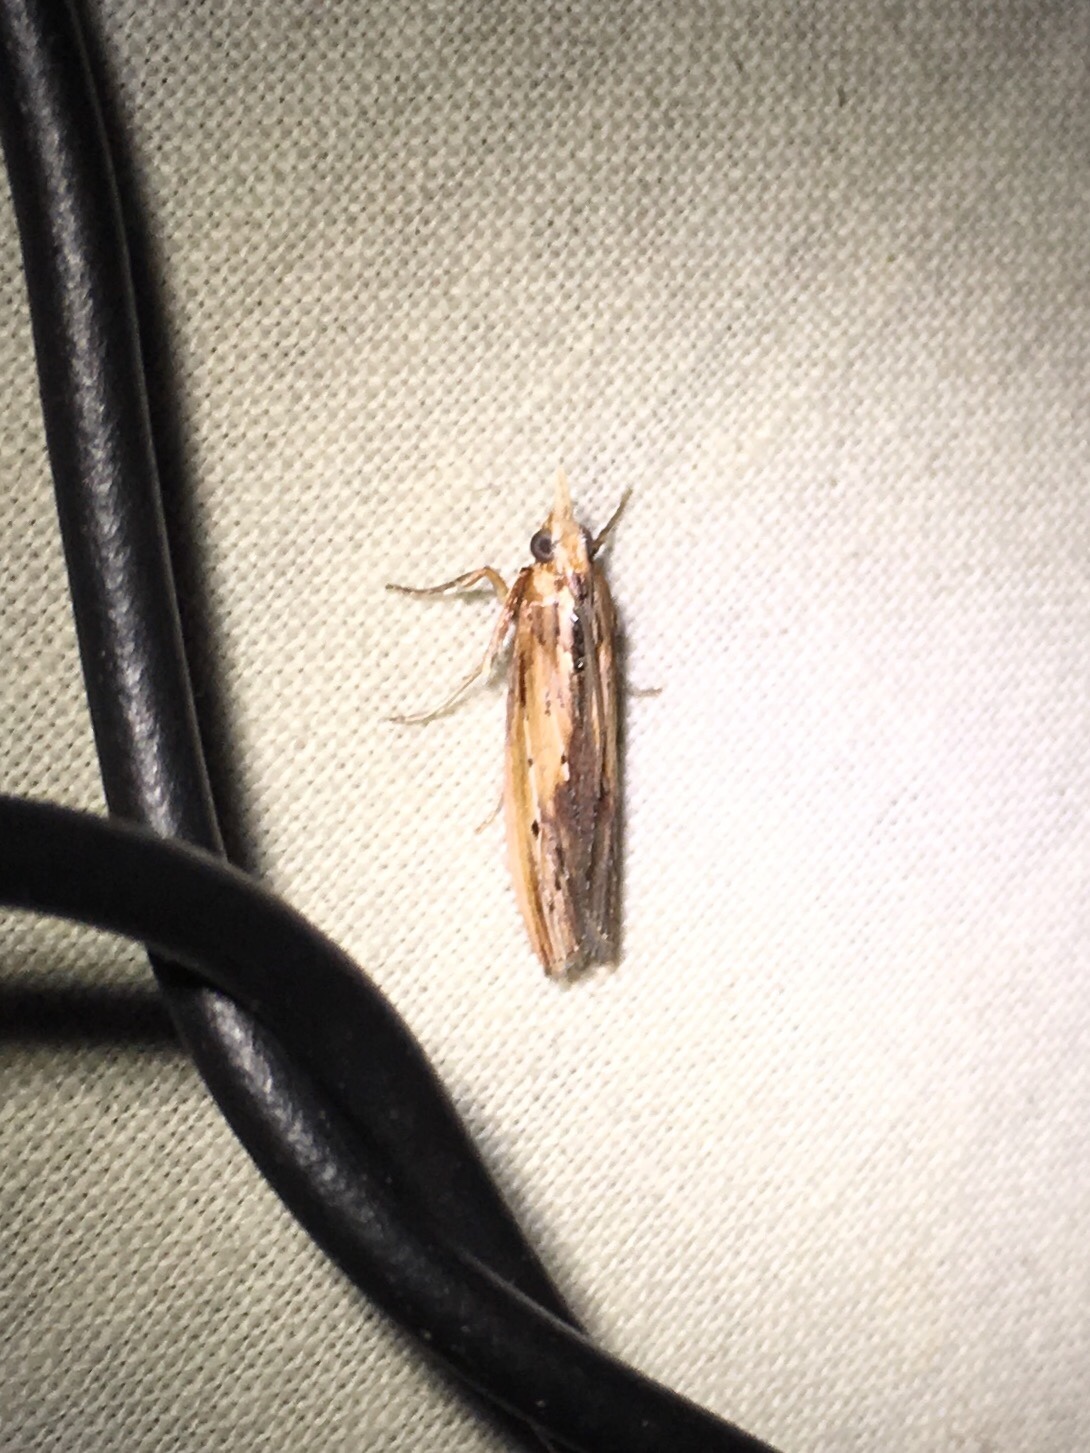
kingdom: Animalia
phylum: Arthropoda
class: Insecta
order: Lepidoptera
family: Pyralidae
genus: Elasmopalpus
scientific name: Elasmopalpus lignosella
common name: Lesser cornstalk borer
